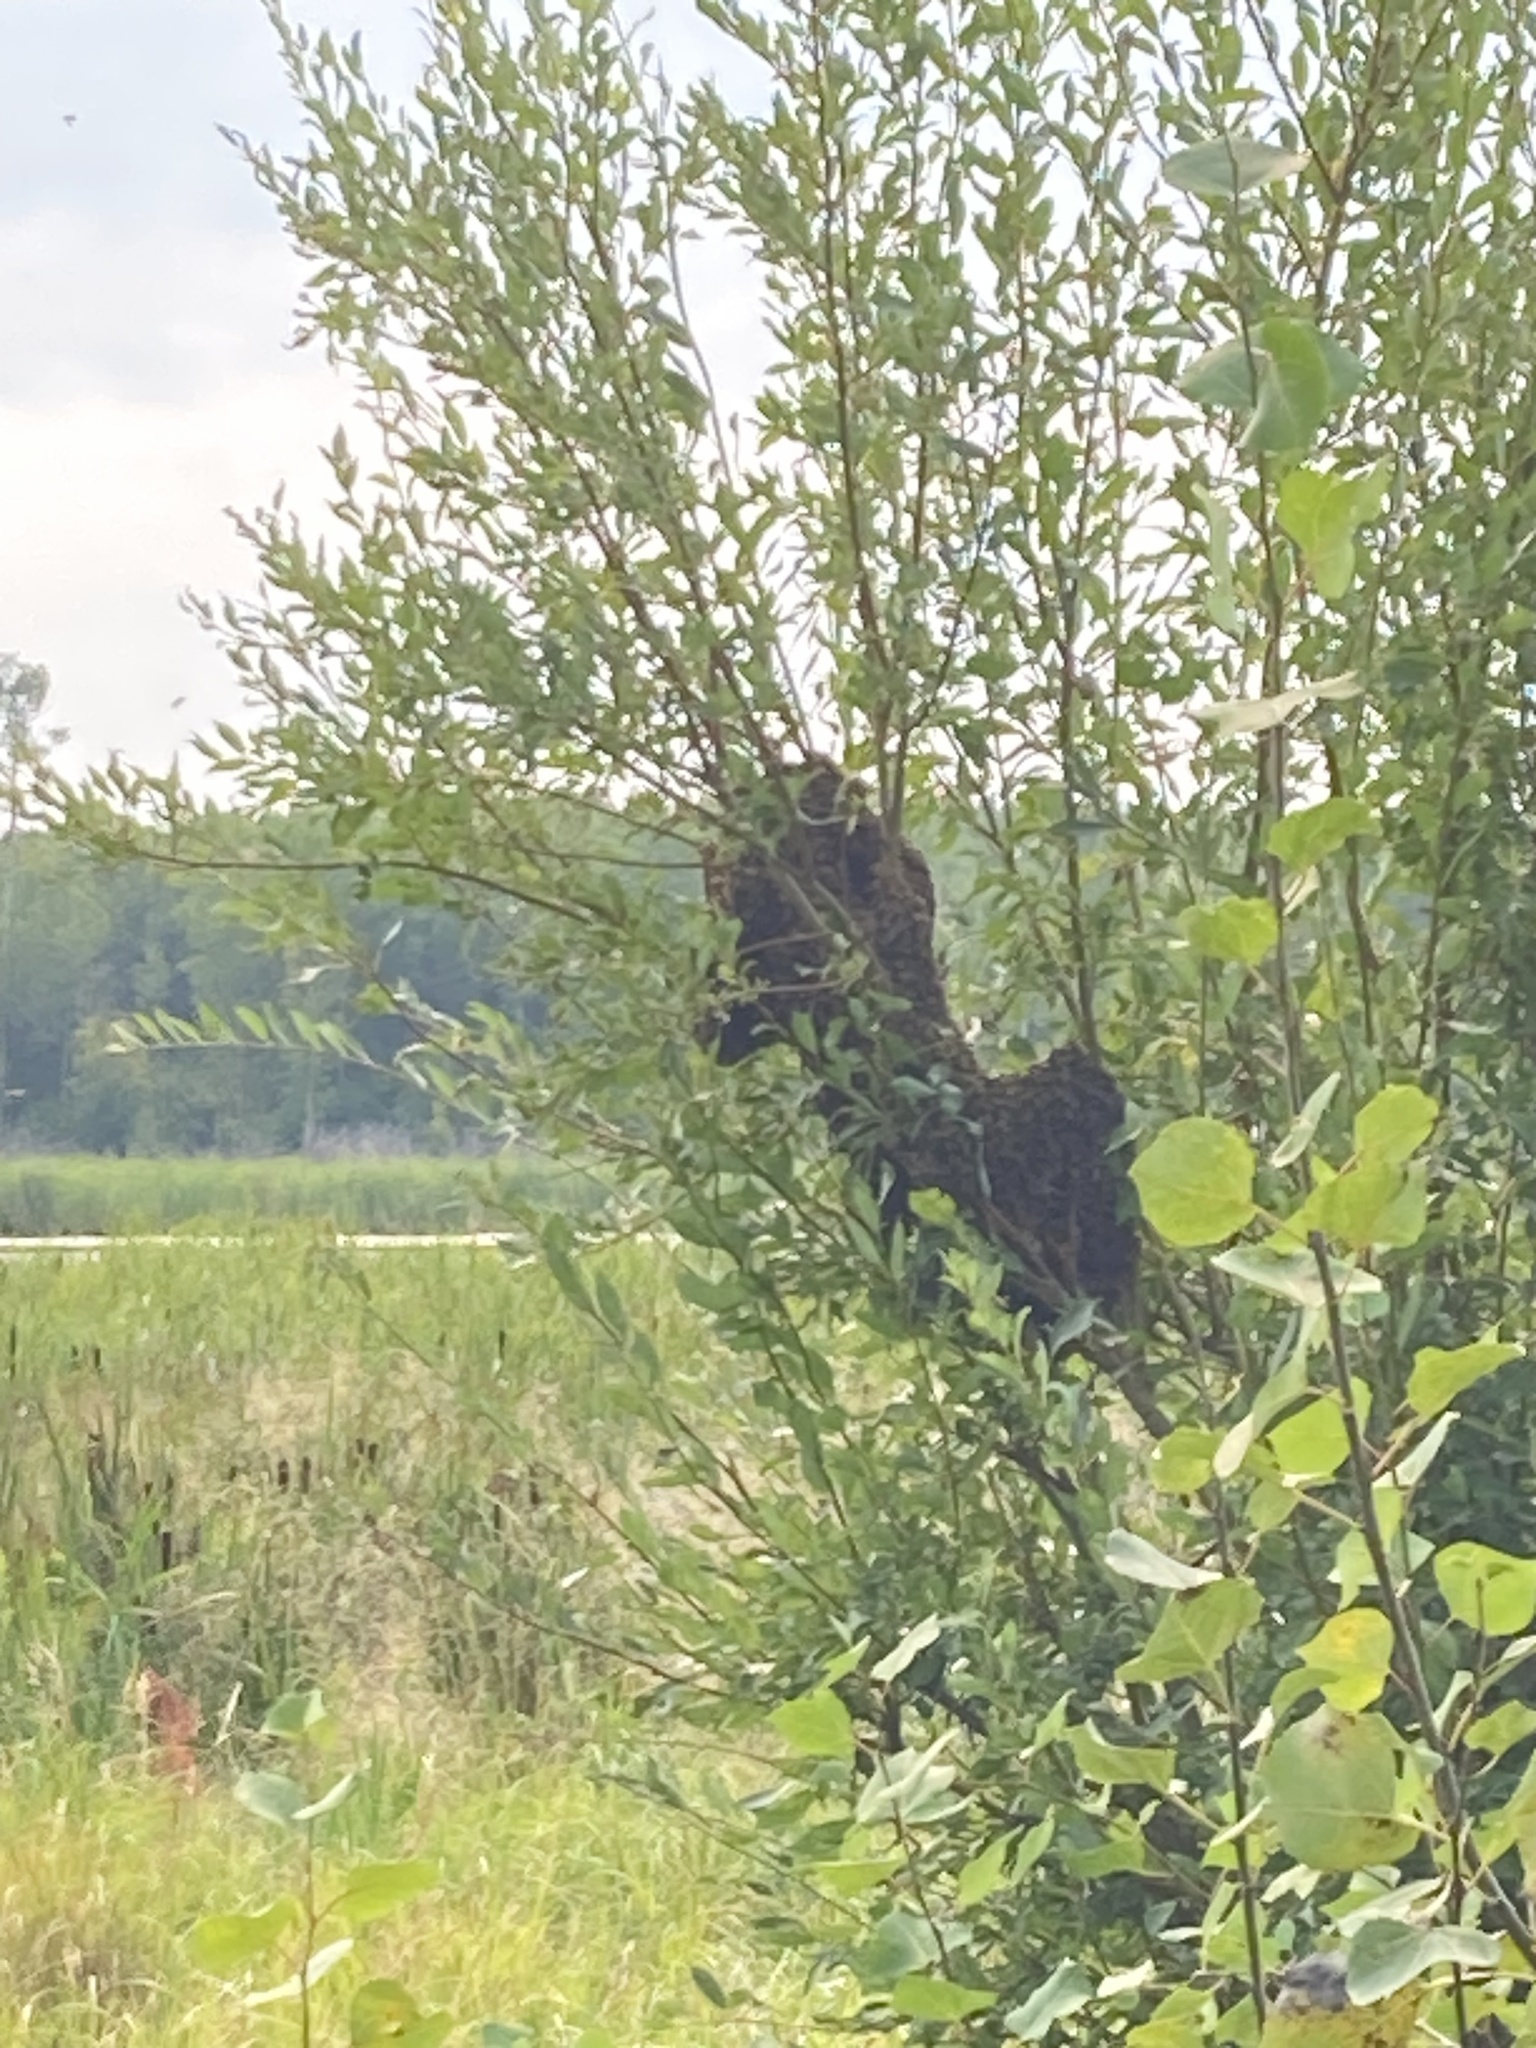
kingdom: Animalia
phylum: Arthropoda
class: Insecta
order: Hymenoptera
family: Apidae
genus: Apis
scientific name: Apis mellifera
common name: Honey bee
